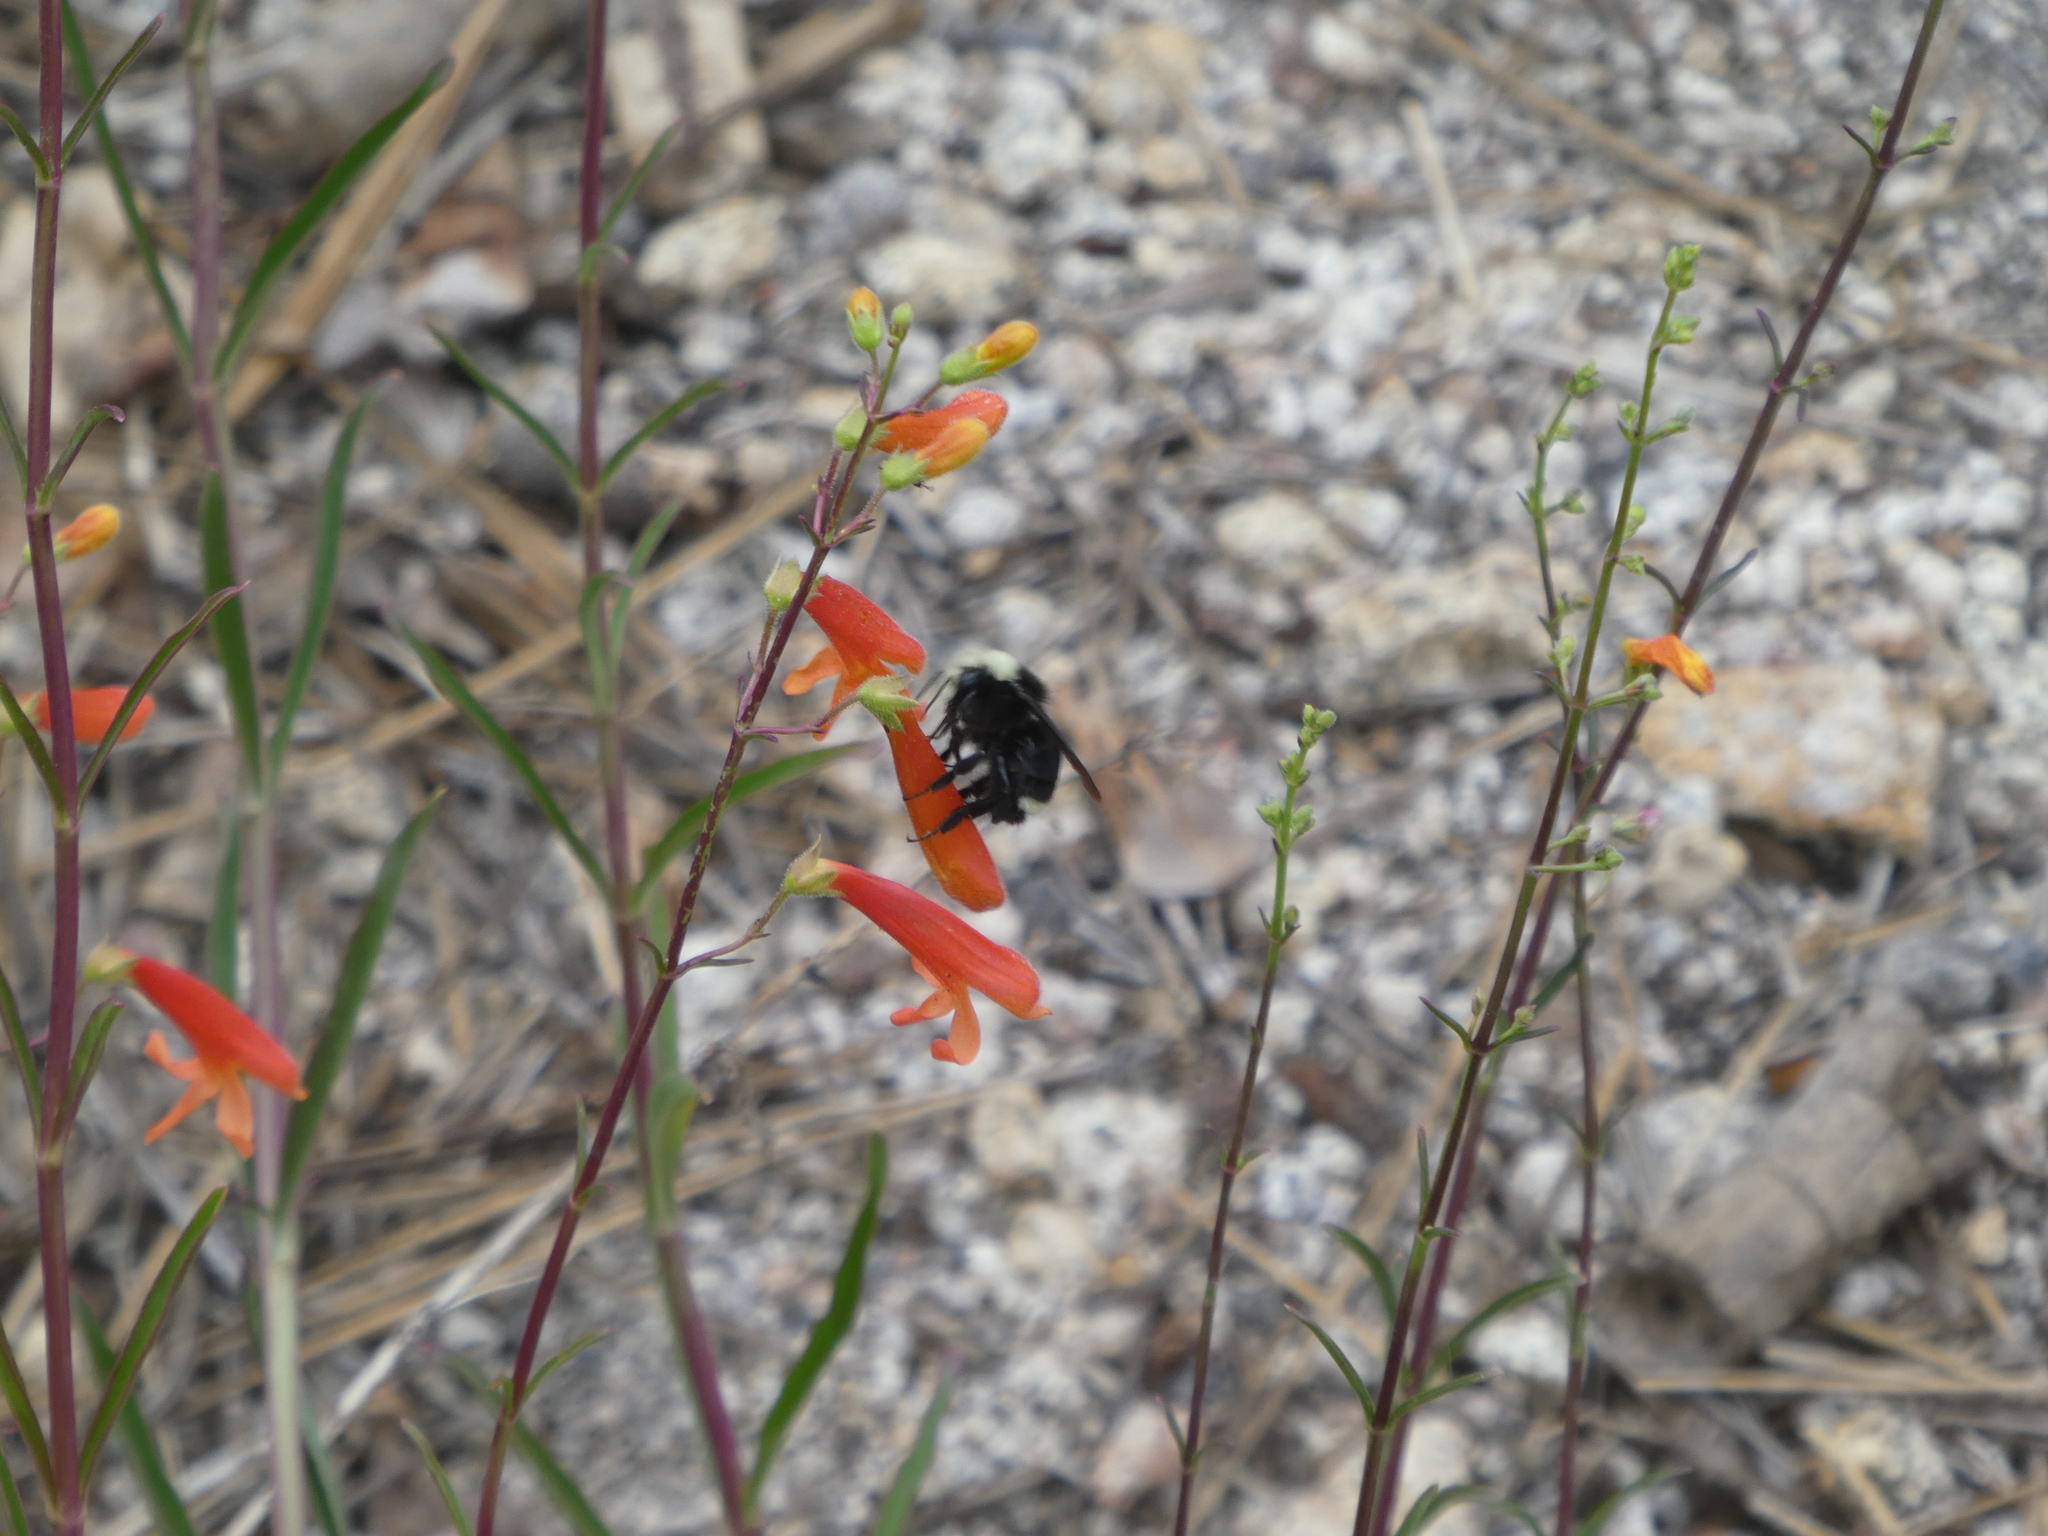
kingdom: Animalia
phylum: Arthropoda
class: Insecta
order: Hymenoptera
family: Apidae
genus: Bombus
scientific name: Bombus vosnesenskii
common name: Vosnesensky bumble bee
